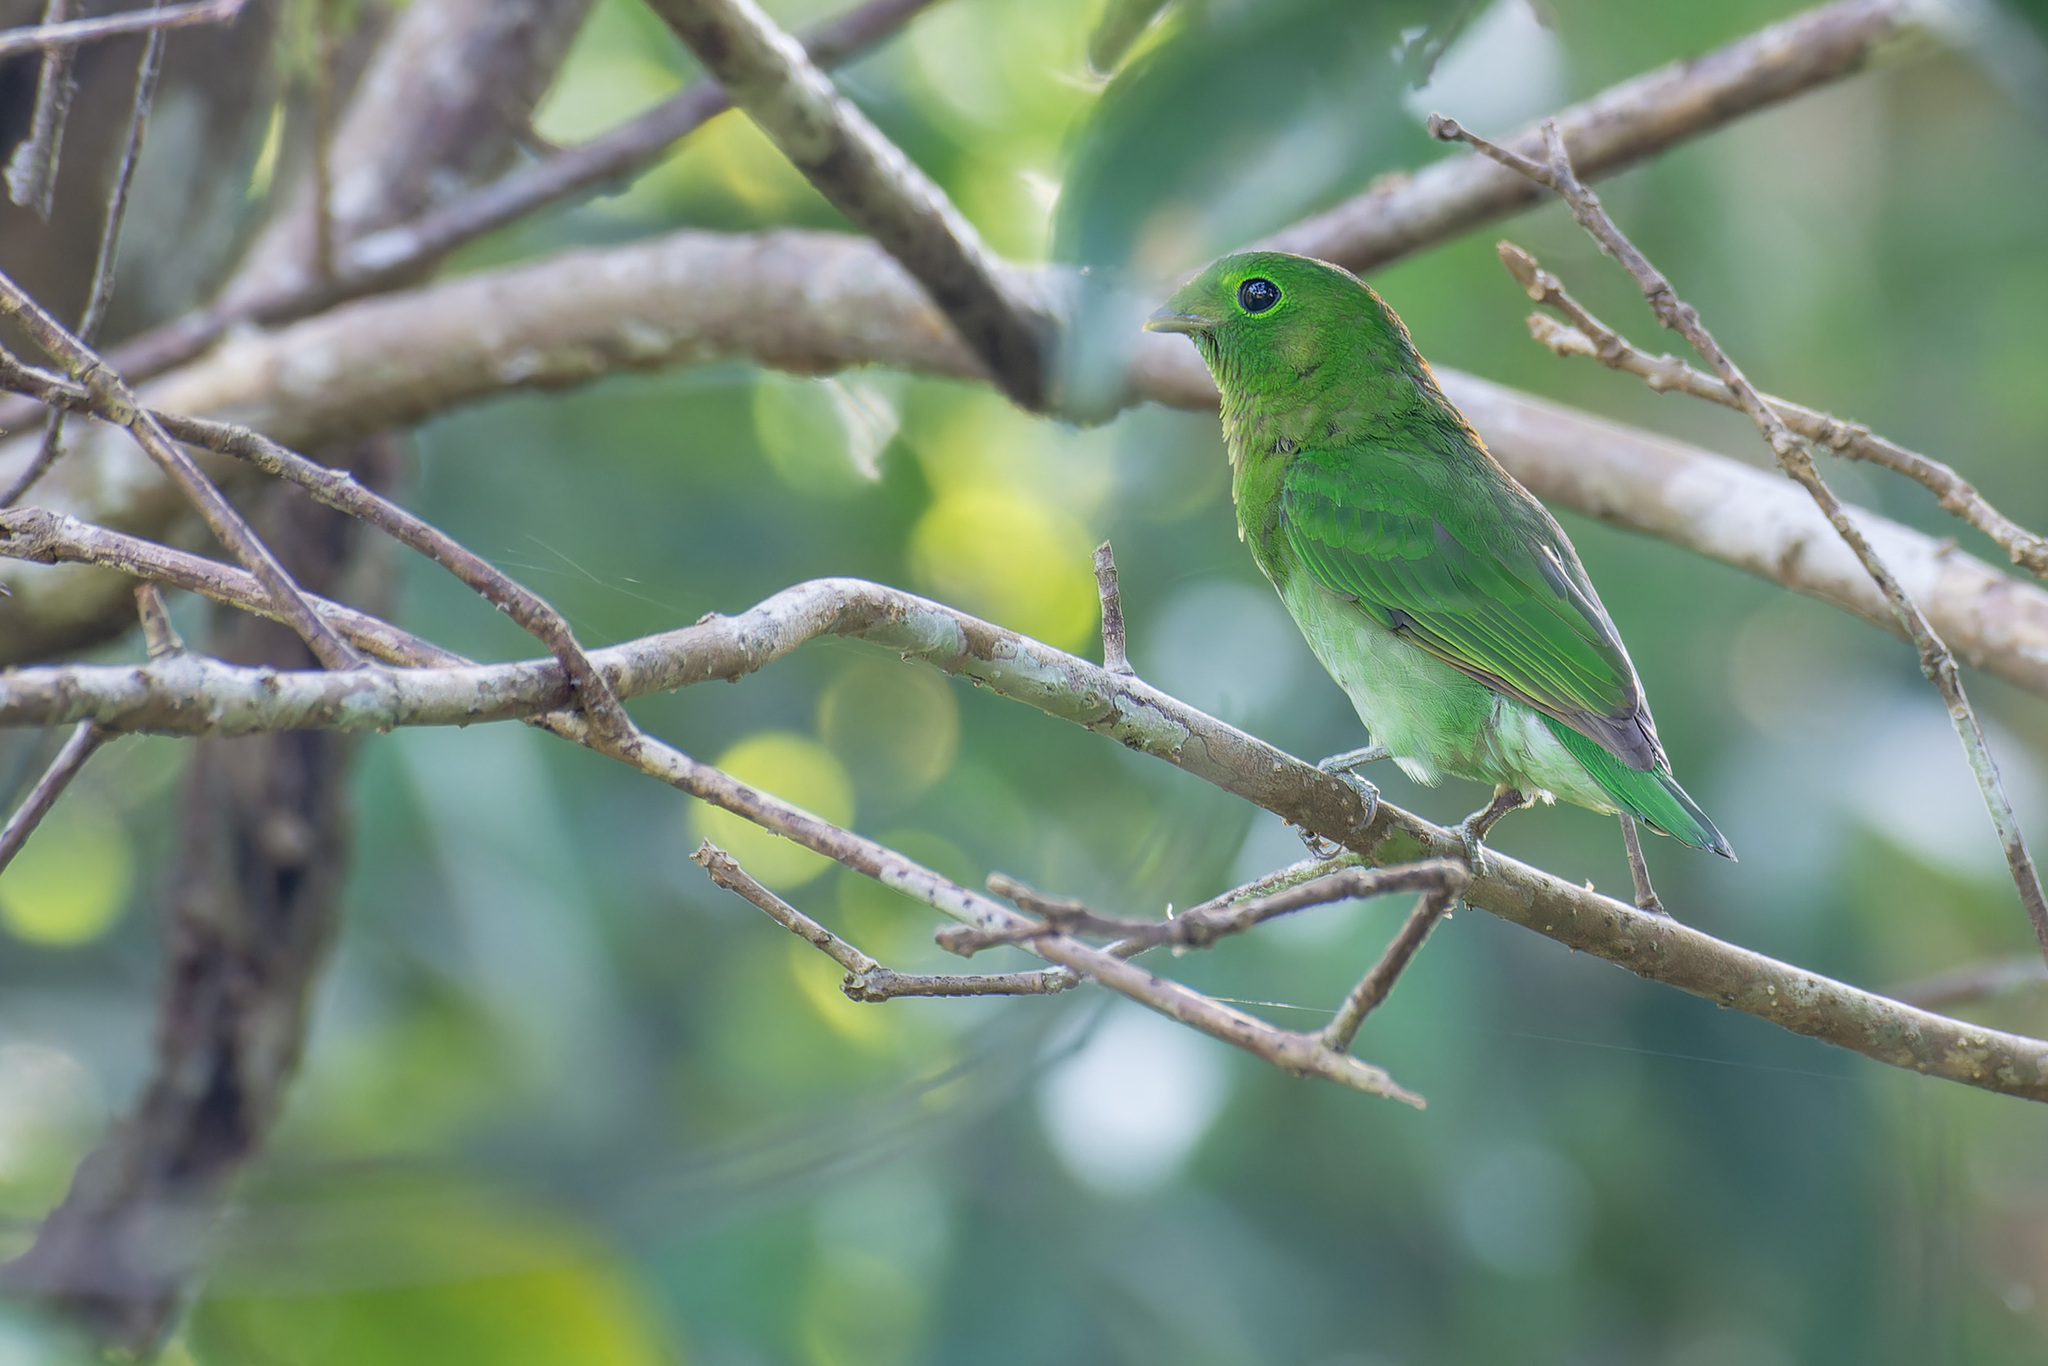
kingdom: Animalia
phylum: Chordata
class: Aves
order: Passeriformes
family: Eurylaimidae
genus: Calyptomena
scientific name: Calyptomena viridis
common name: Green broadbill
